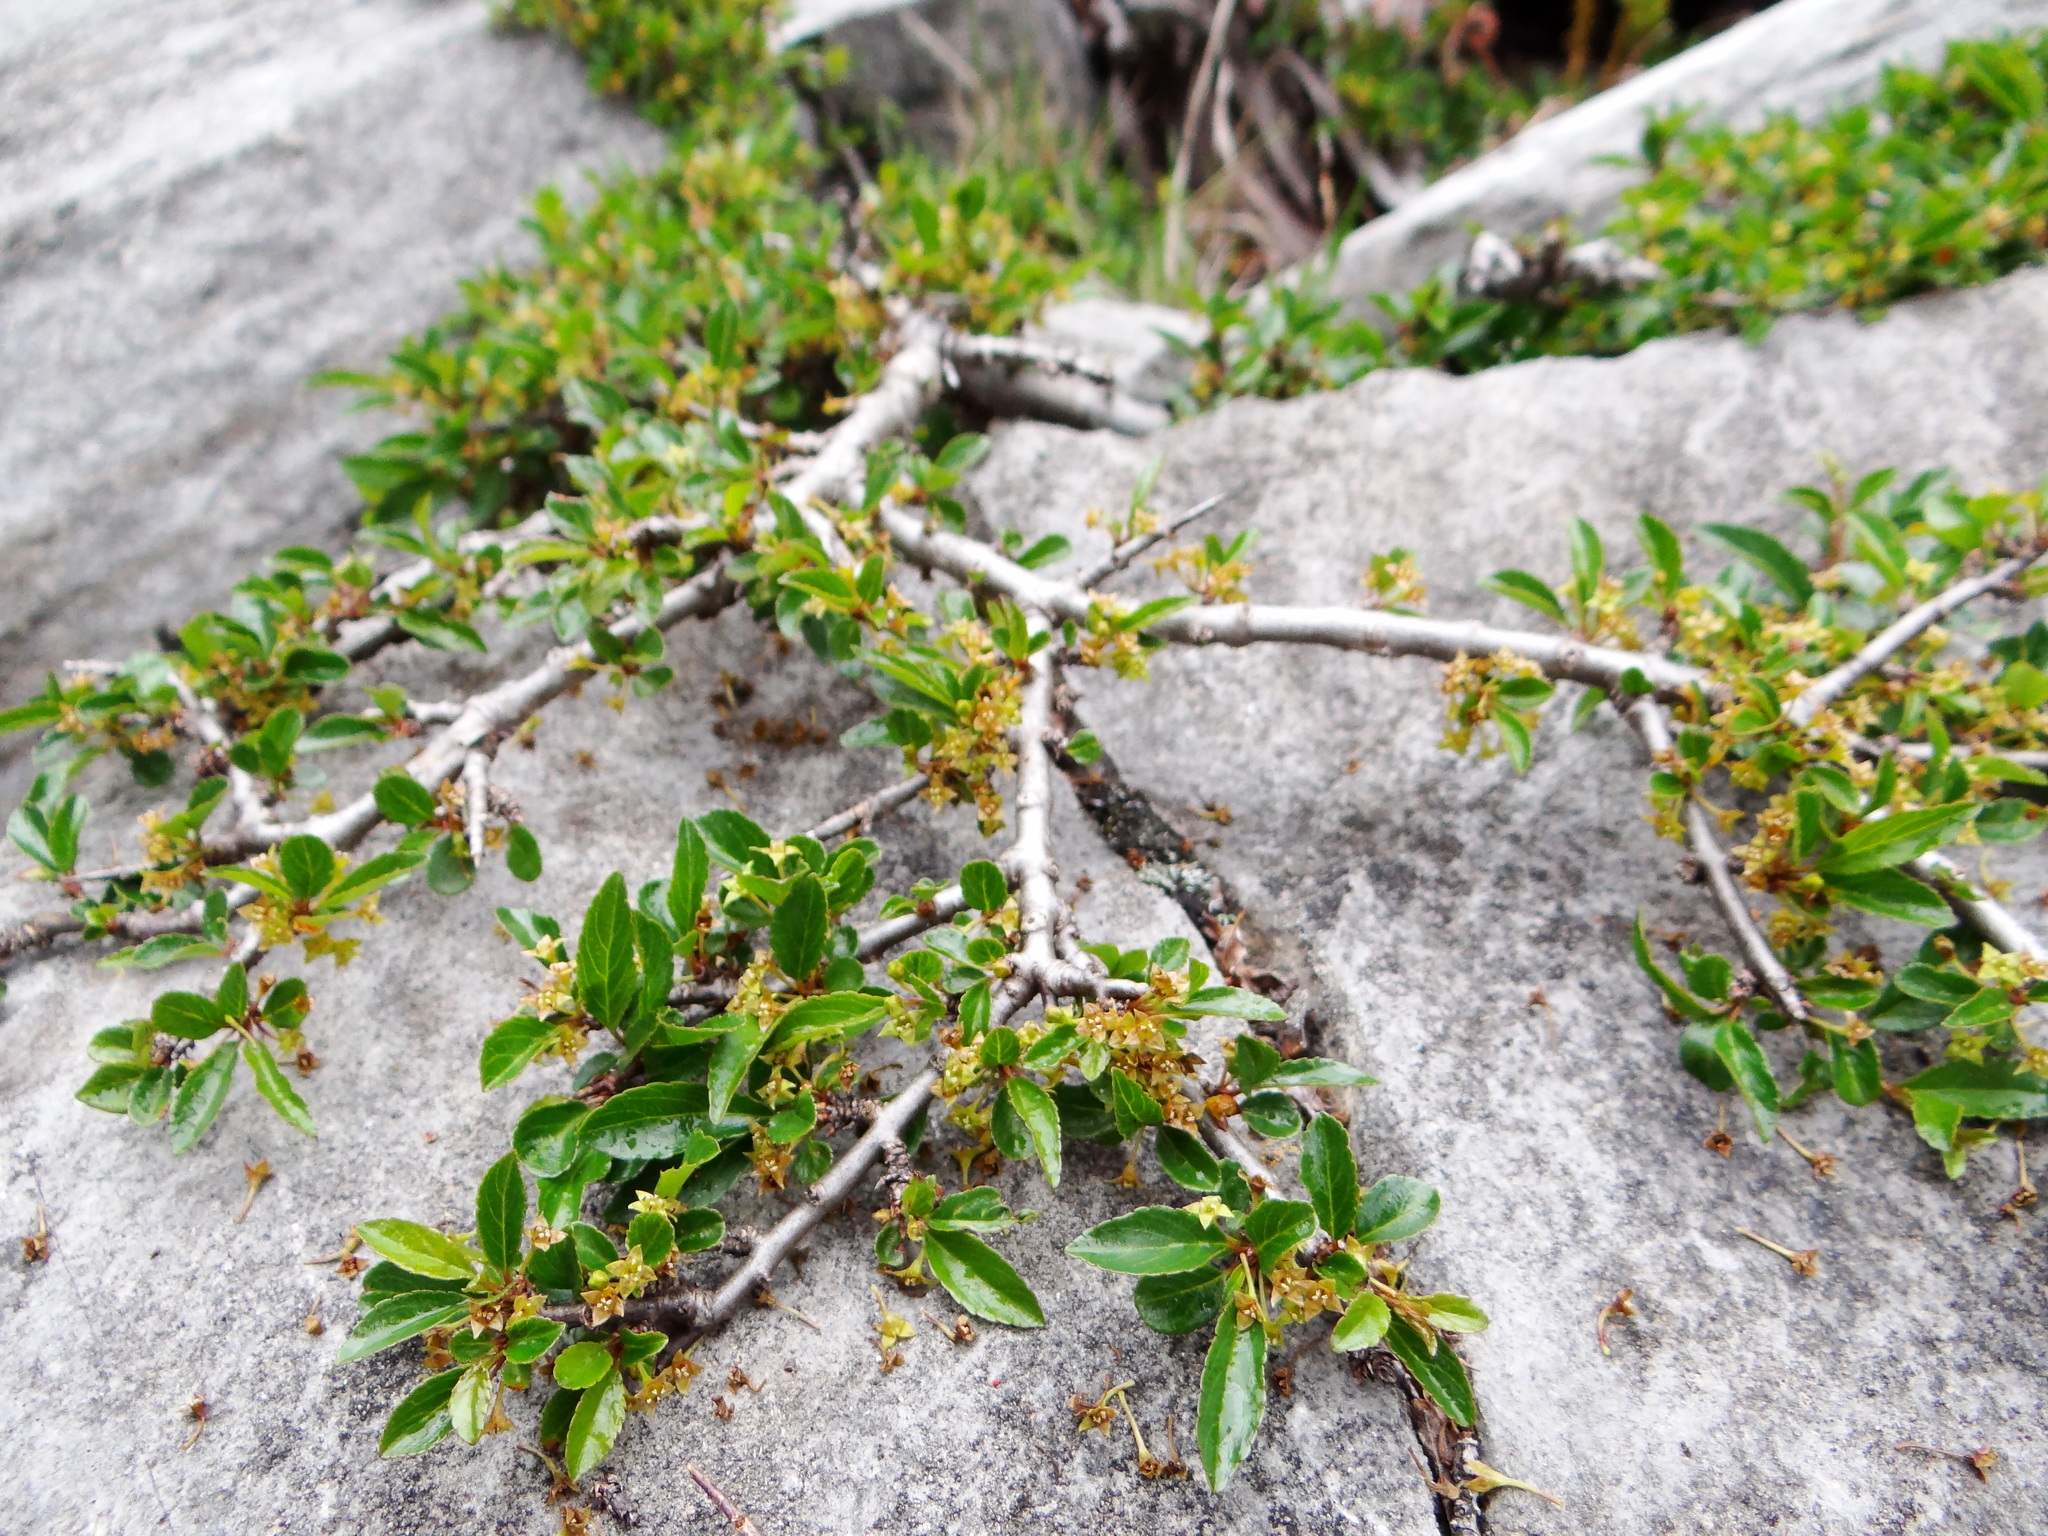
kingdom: Plantae
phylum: Tracheophyta
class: Magnoliopsida
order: Rosales
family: Rhamnaceae
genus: Rhamnus
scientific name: Rhamnus parvifolia
